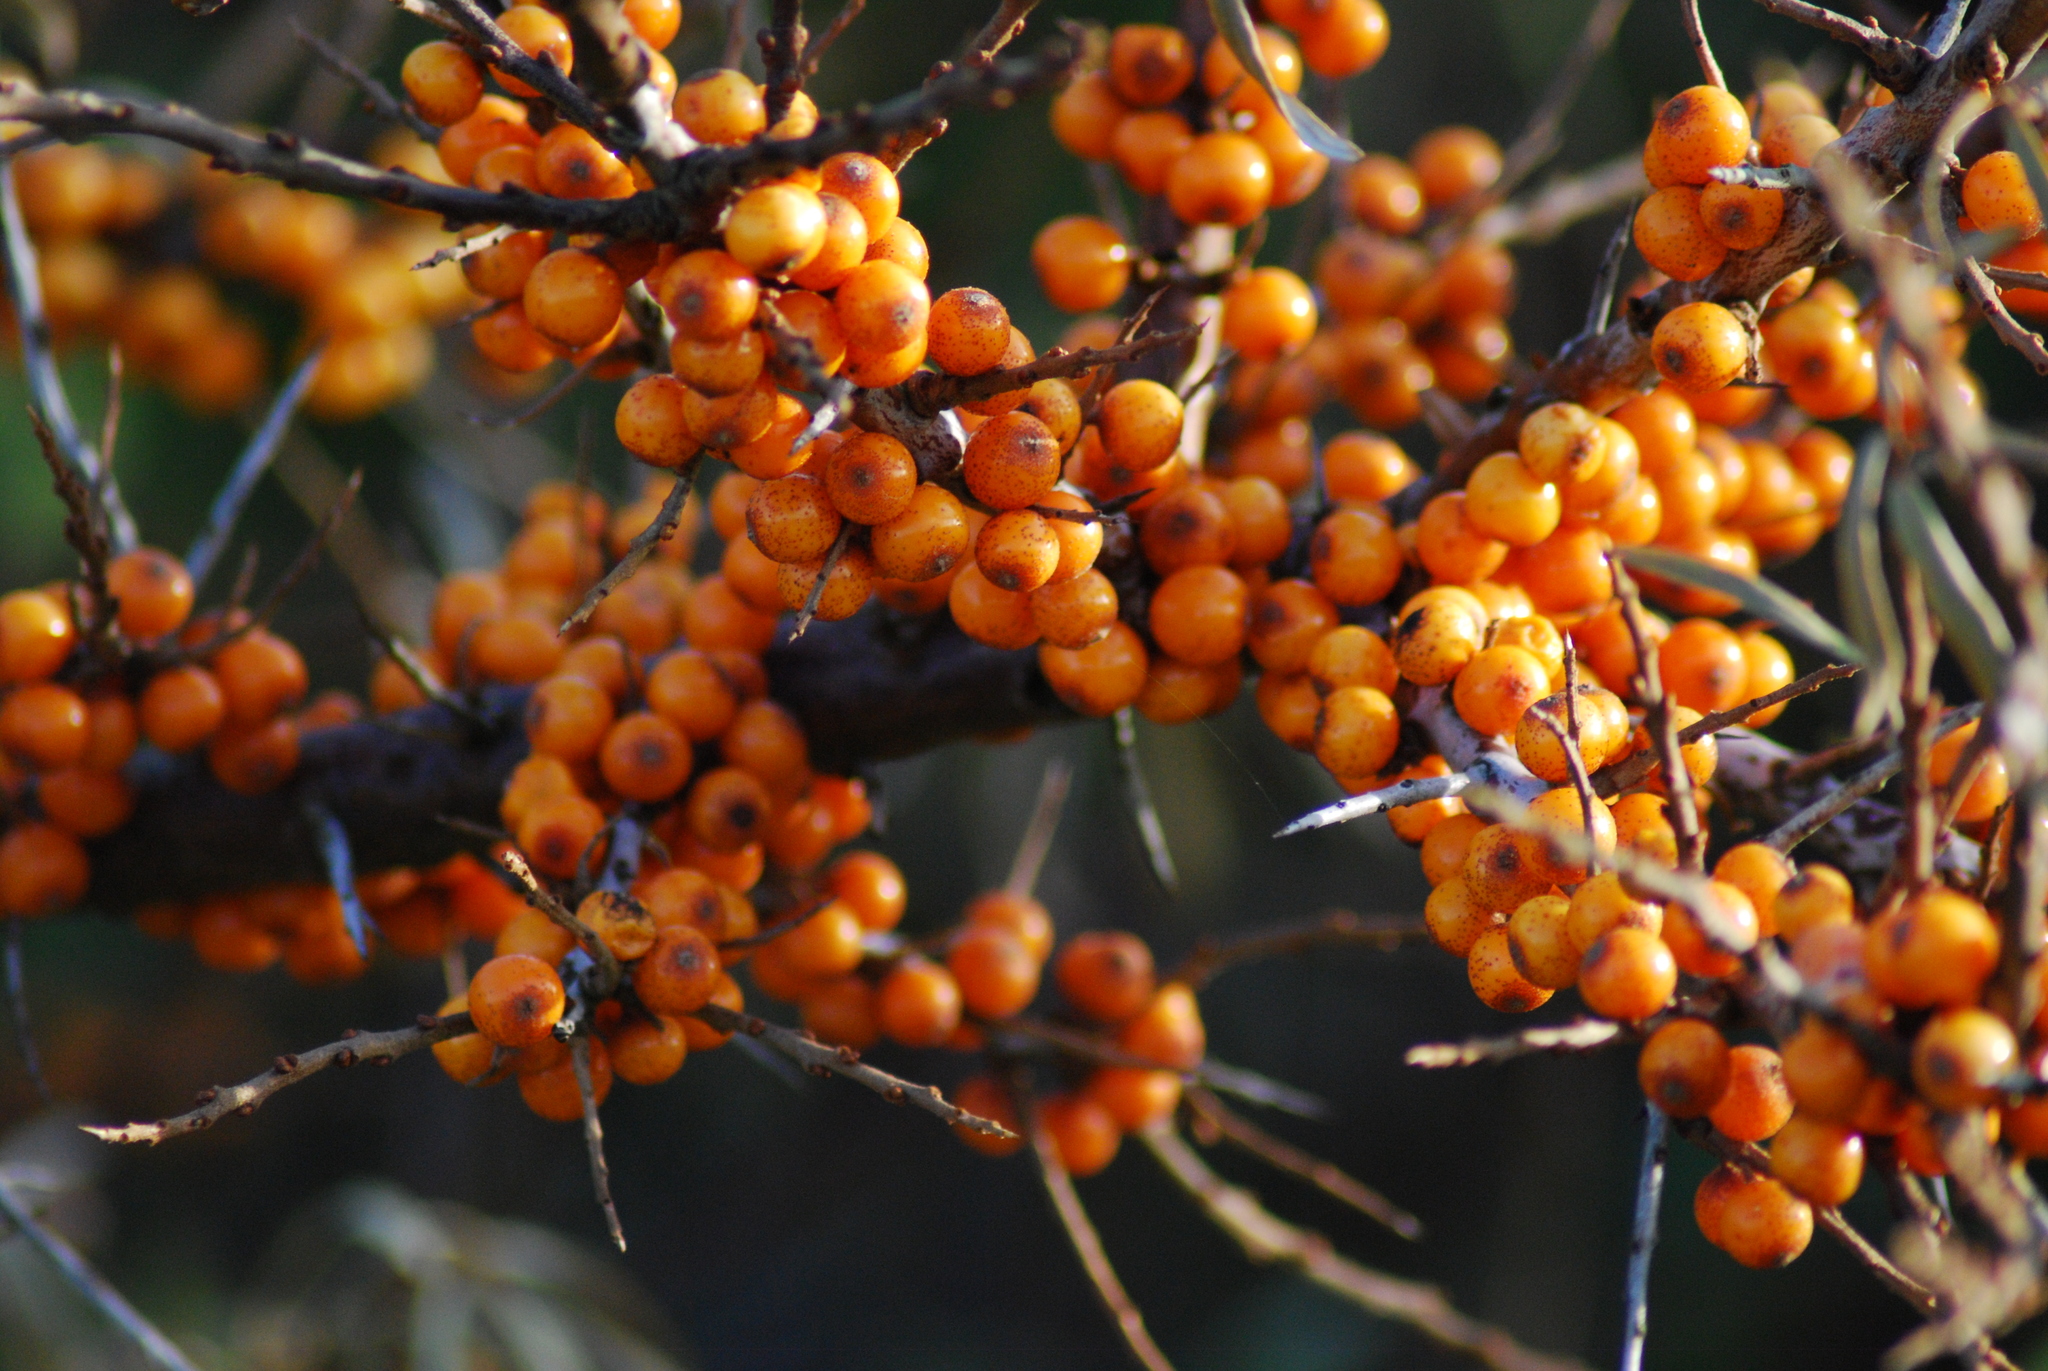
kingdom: Plantae
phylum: Tracheophyta
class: Magnoliopsida
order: Rosales
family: Elaeagnaceae
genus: Hippophae
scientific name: Hippophae rhamnoides
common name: Sea-buckthorn
